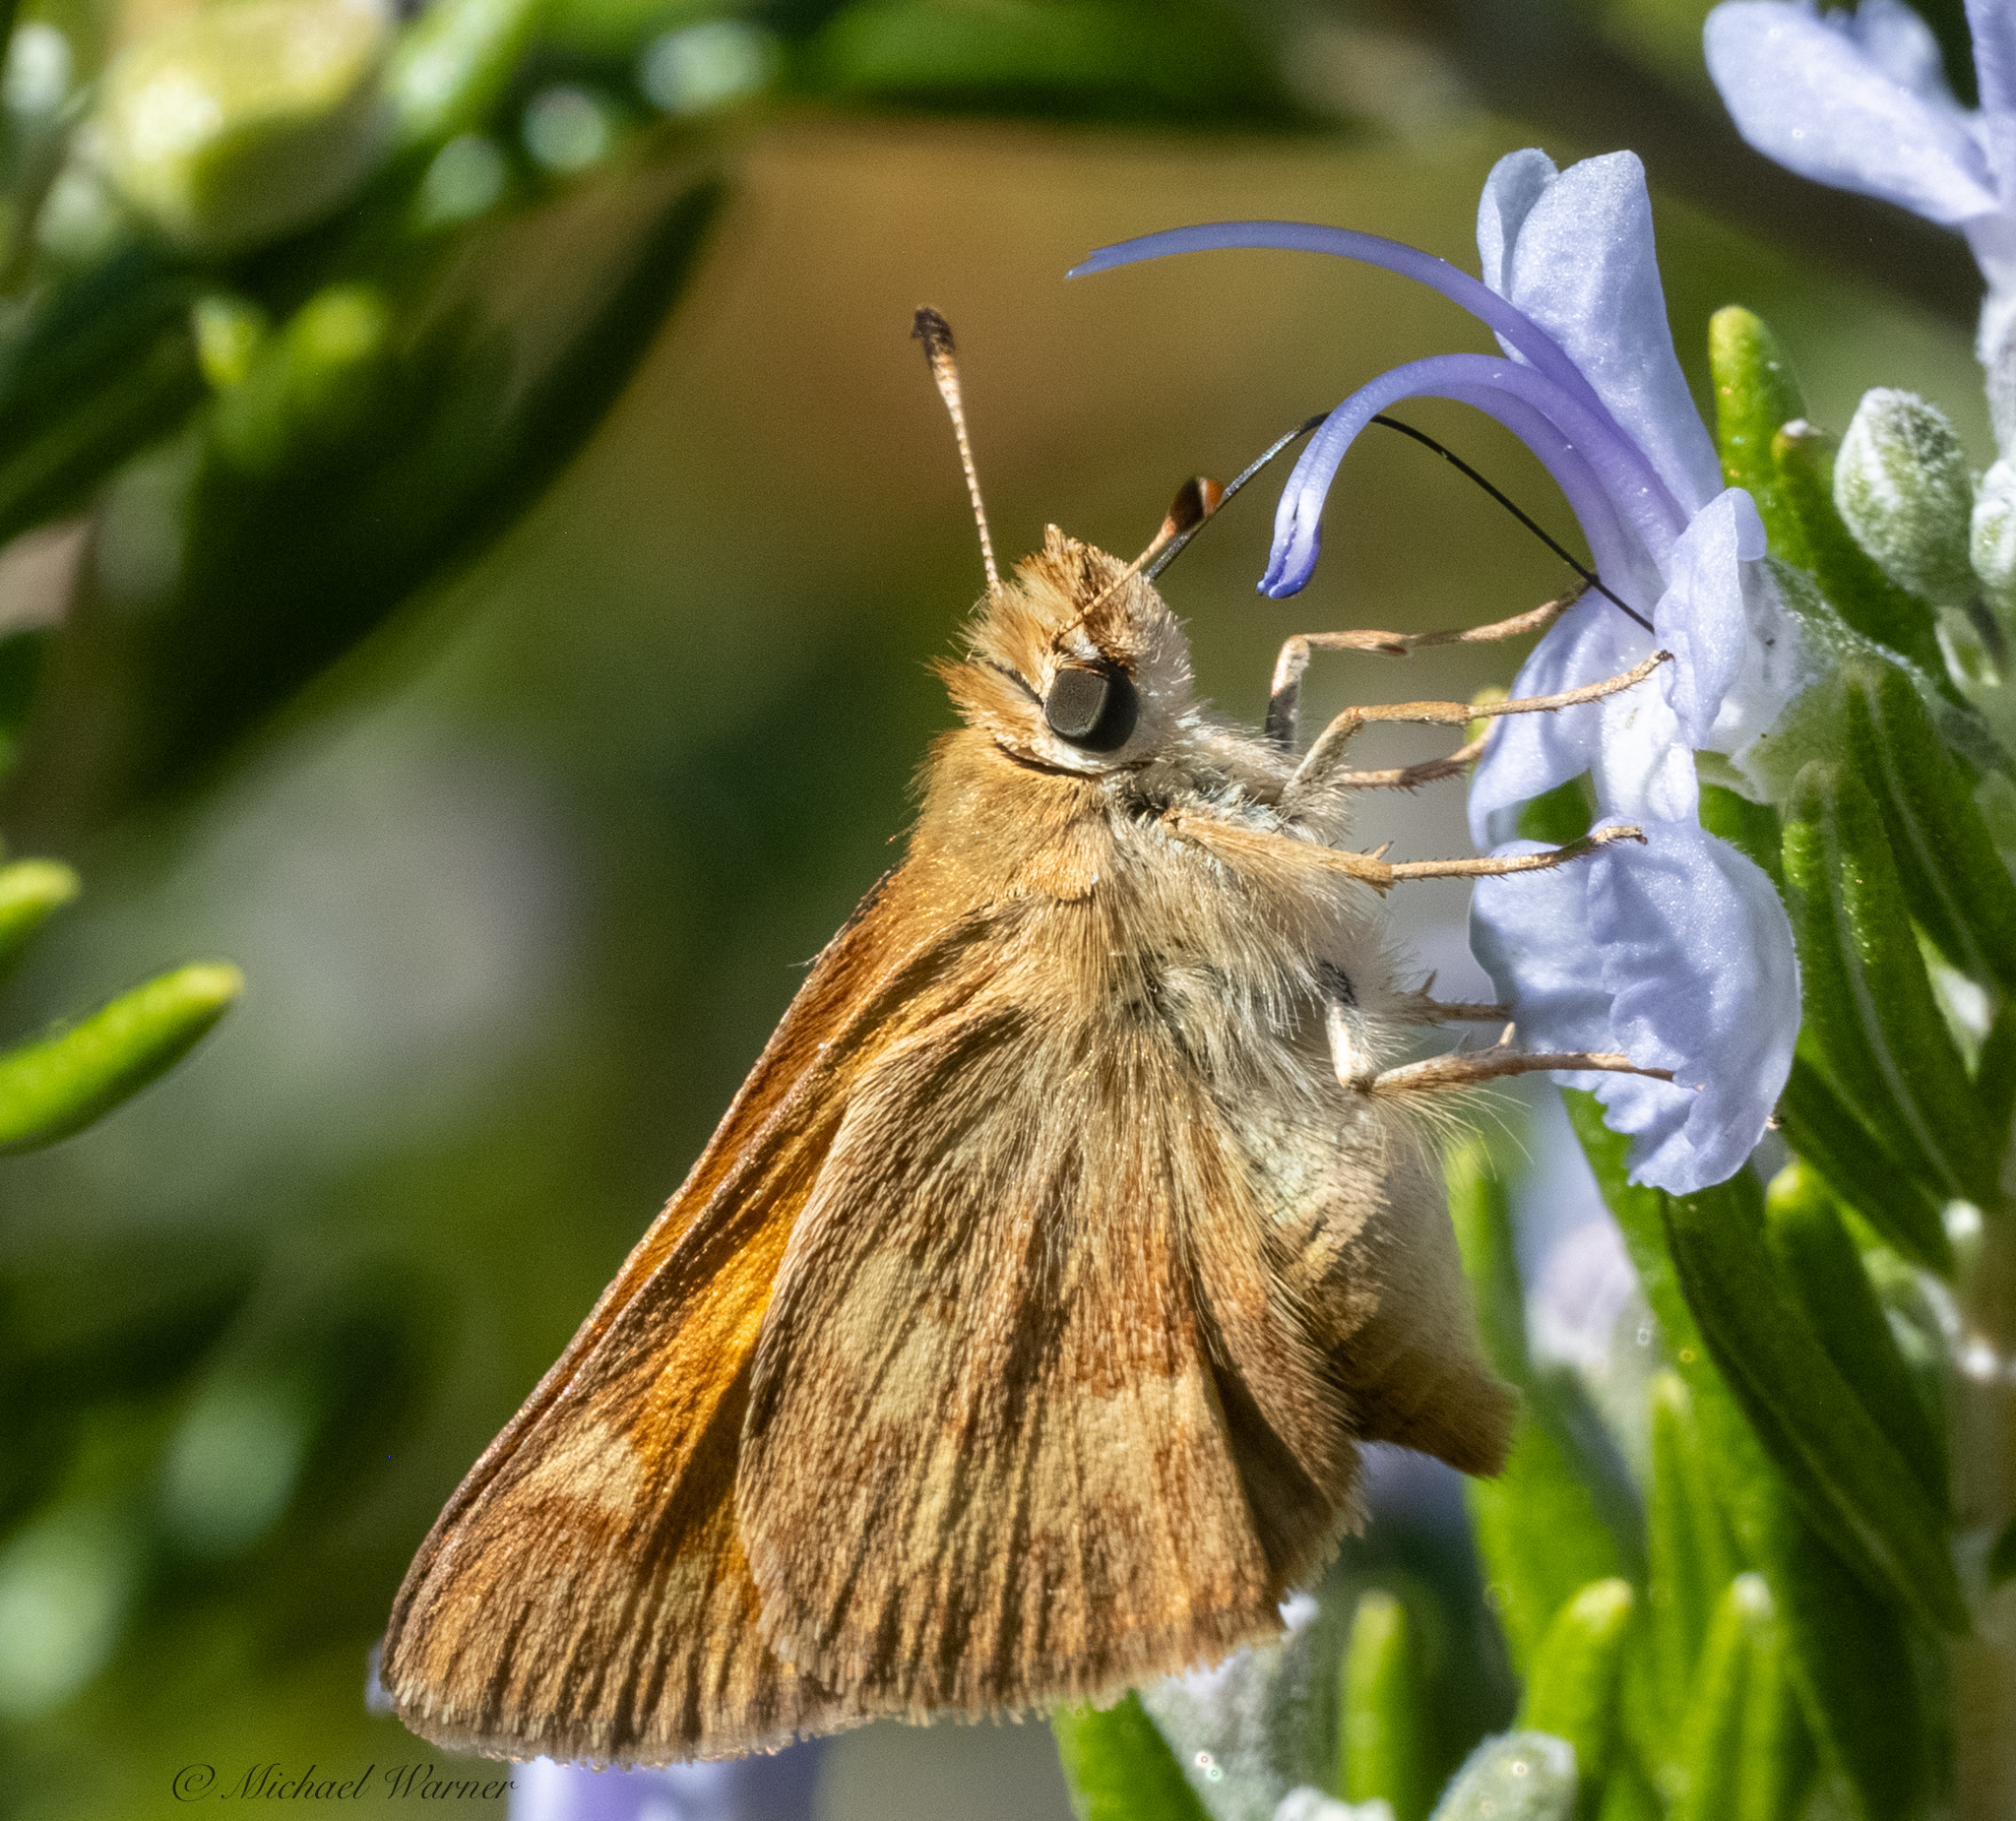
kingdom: Animalia
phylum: Arthropoda
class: Insecta
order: Lepidoptera
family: Hesperiidae
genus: Ochlodes
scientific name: Ochlodes sylvanoides
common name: Woodland skipper
